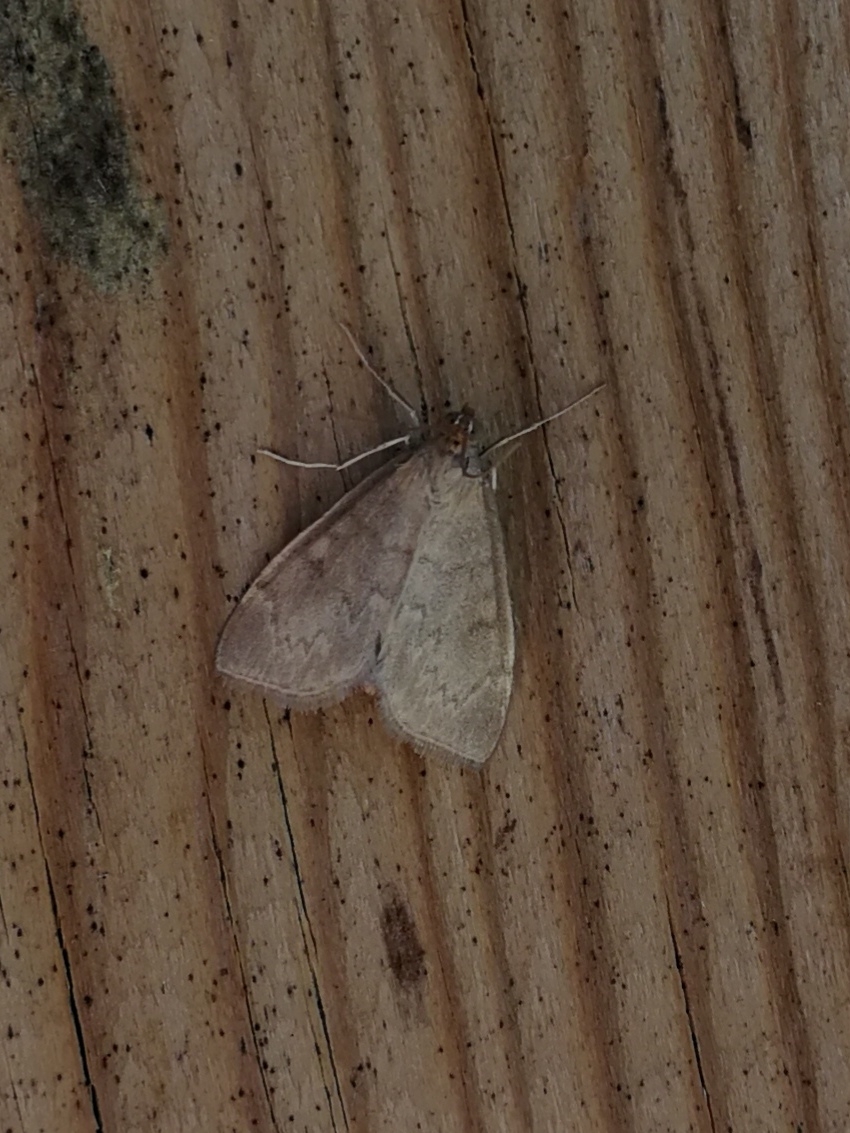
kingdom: Animalia
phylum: Arthropoda
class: Insecta
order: Lepidoptera
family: Crambidae
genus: Anania
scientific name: Anania fuscalis
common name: Cinerous pearl
